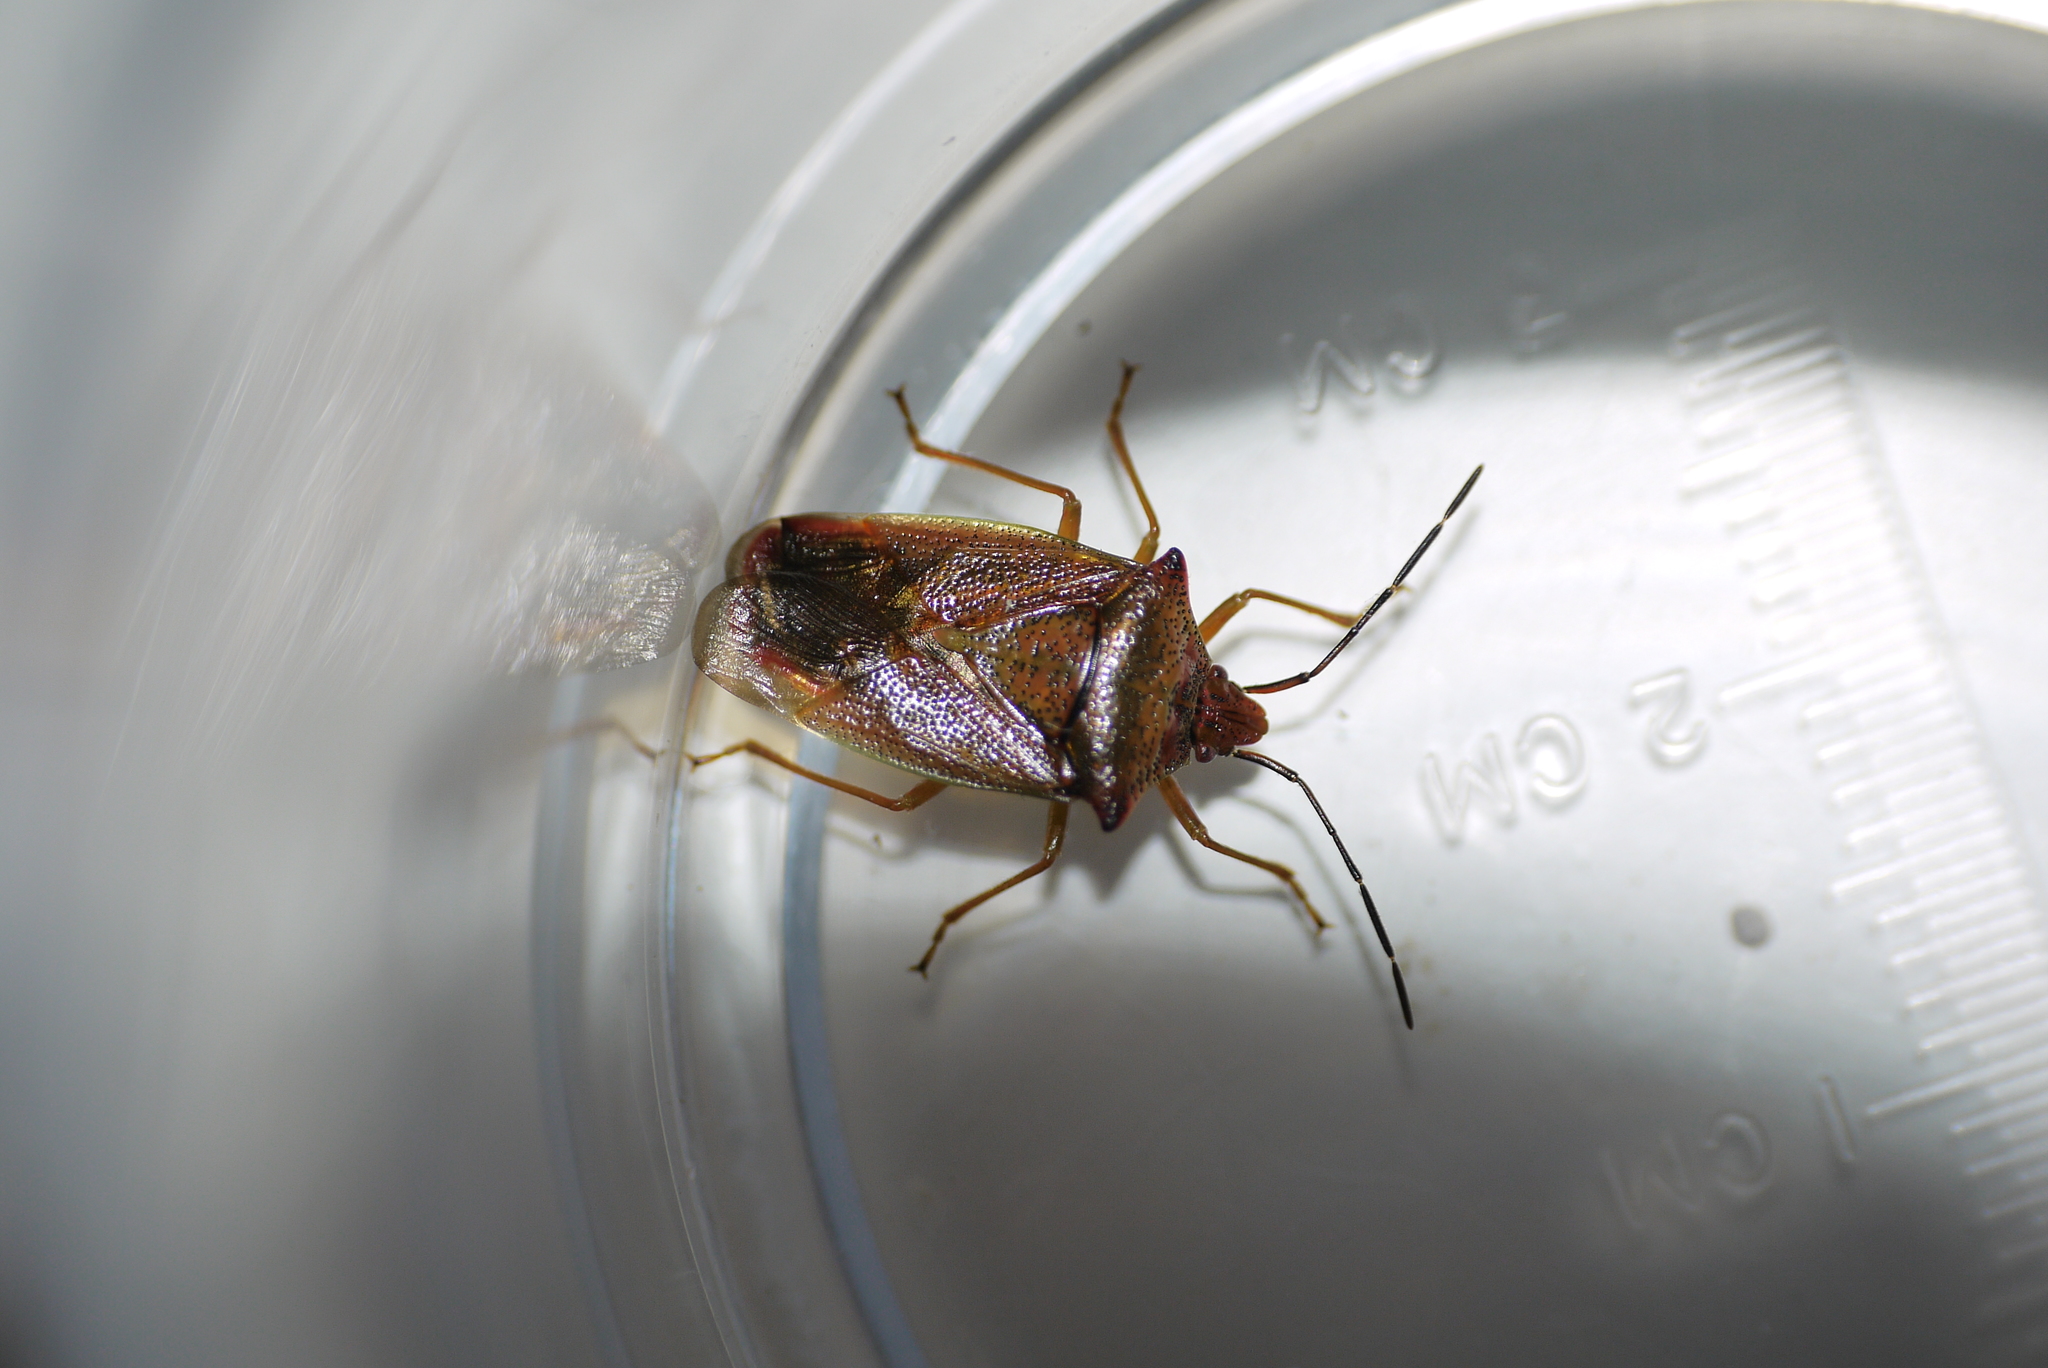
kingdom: Animalia
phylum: Arthropoda
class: Insecta
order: Hemiptera
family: Acanthosomatidae
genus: Acanthosoma
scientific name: Acanthosoma haemorrhoidale
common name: Hawthorn shieldbug
